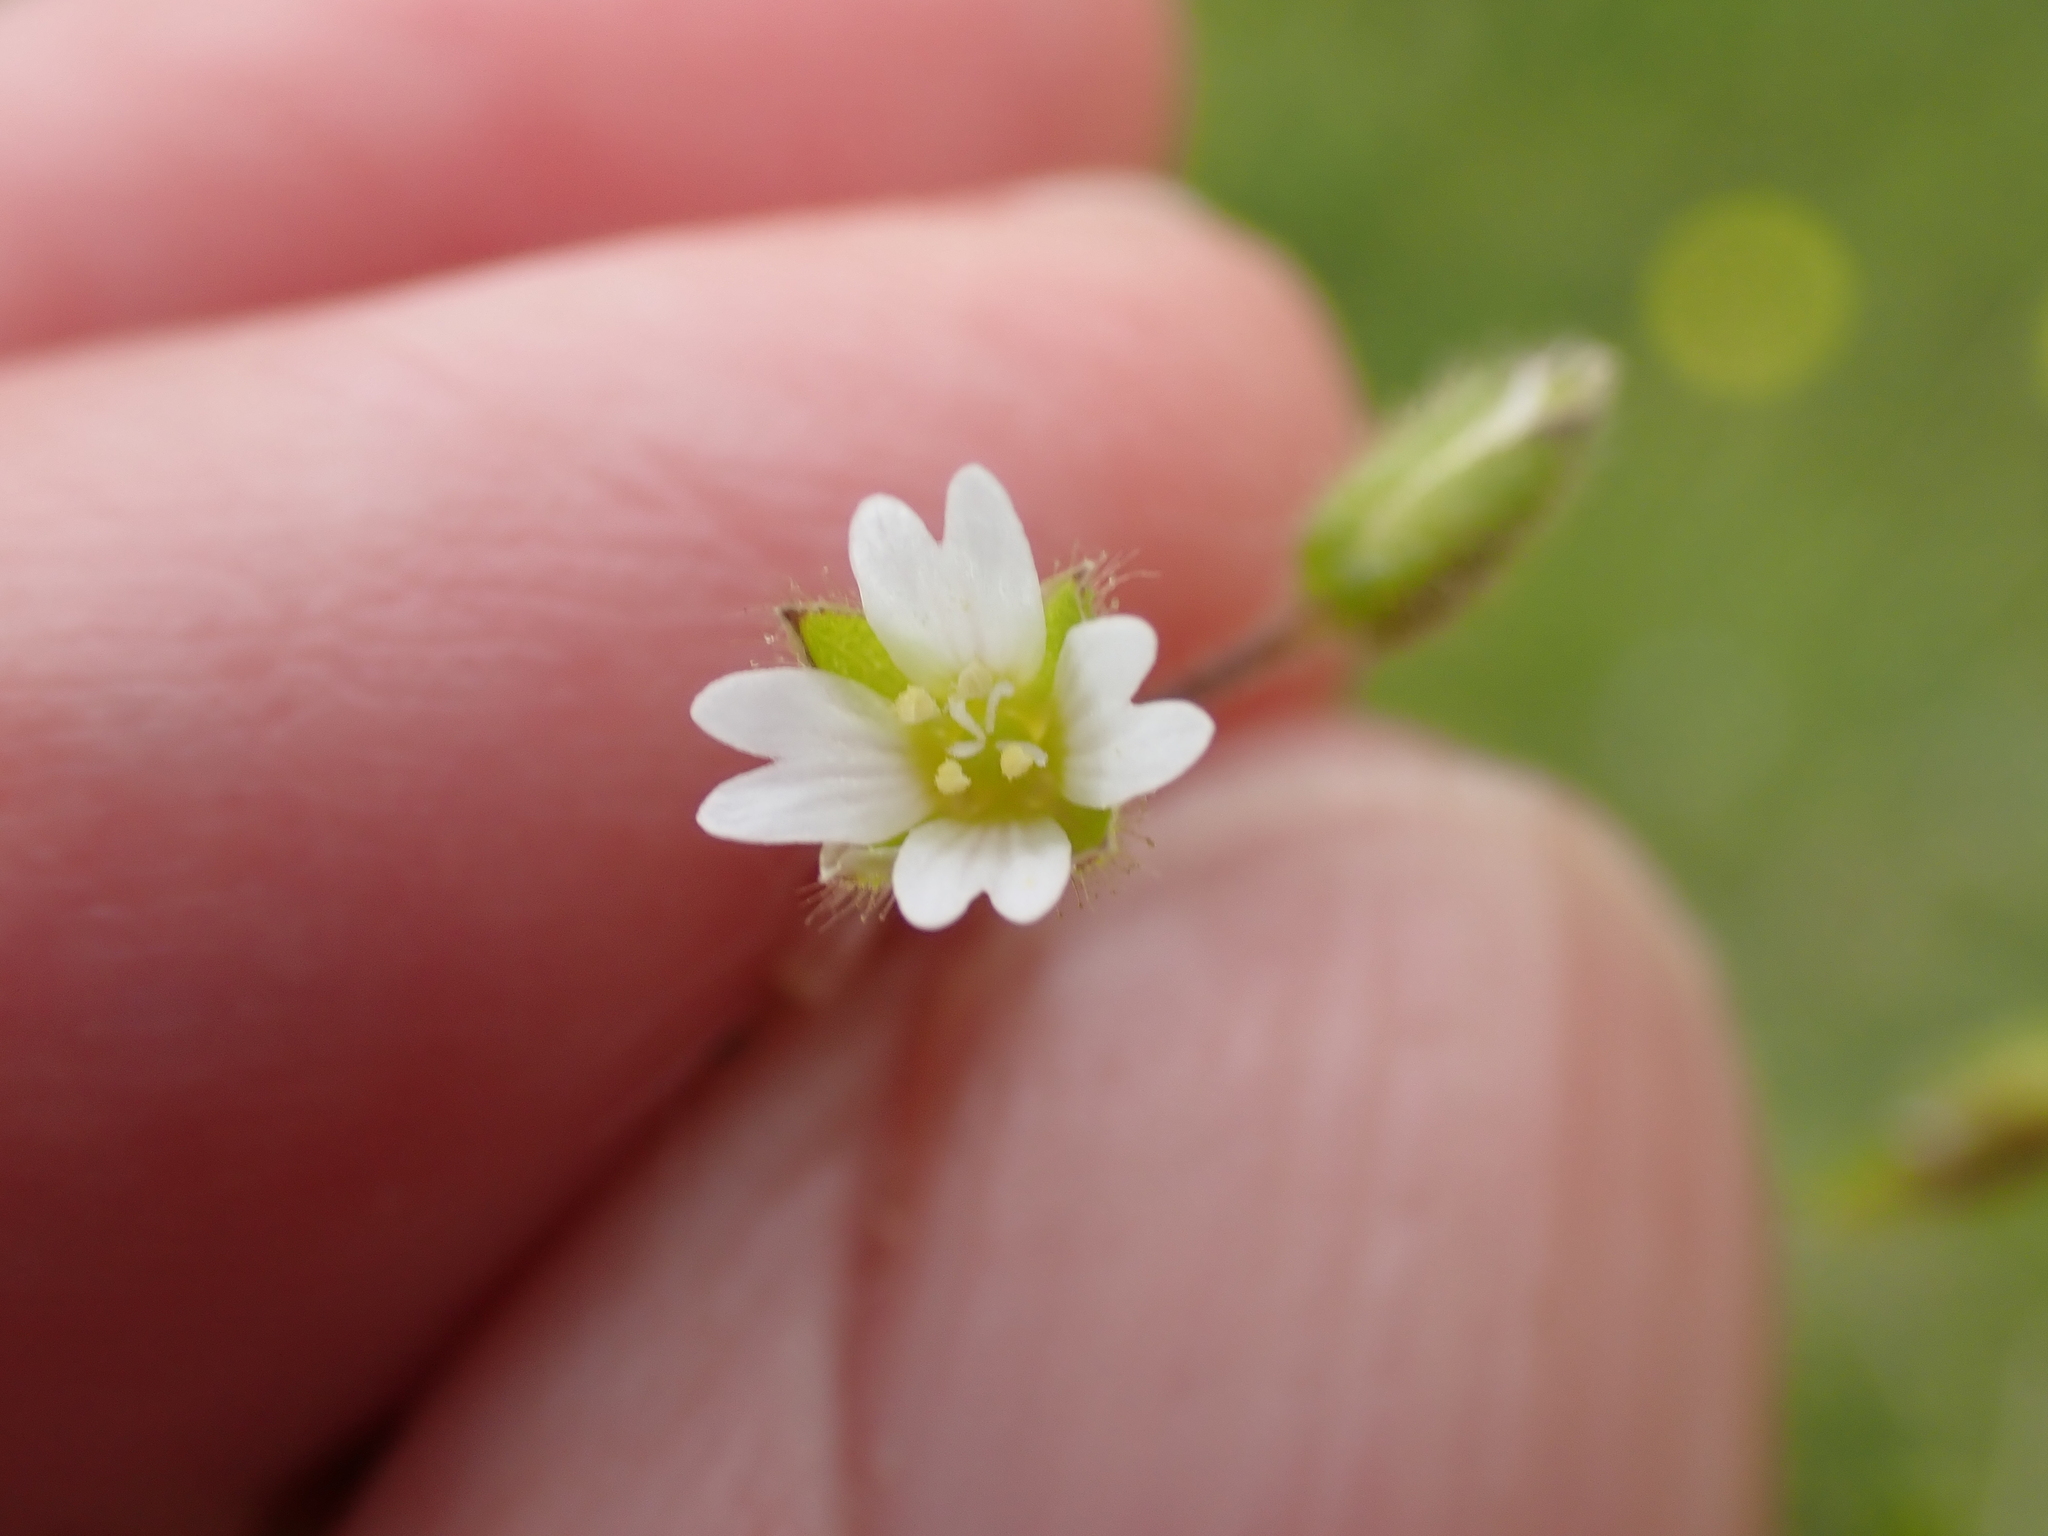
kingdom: Plantae
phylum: Tracheophyta
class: Magnoliopsida
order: Caryophyllales
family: Caryophyllaceae
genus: Cerastium
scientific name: Cerastium diffusum
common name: Fourstamen chickweed
